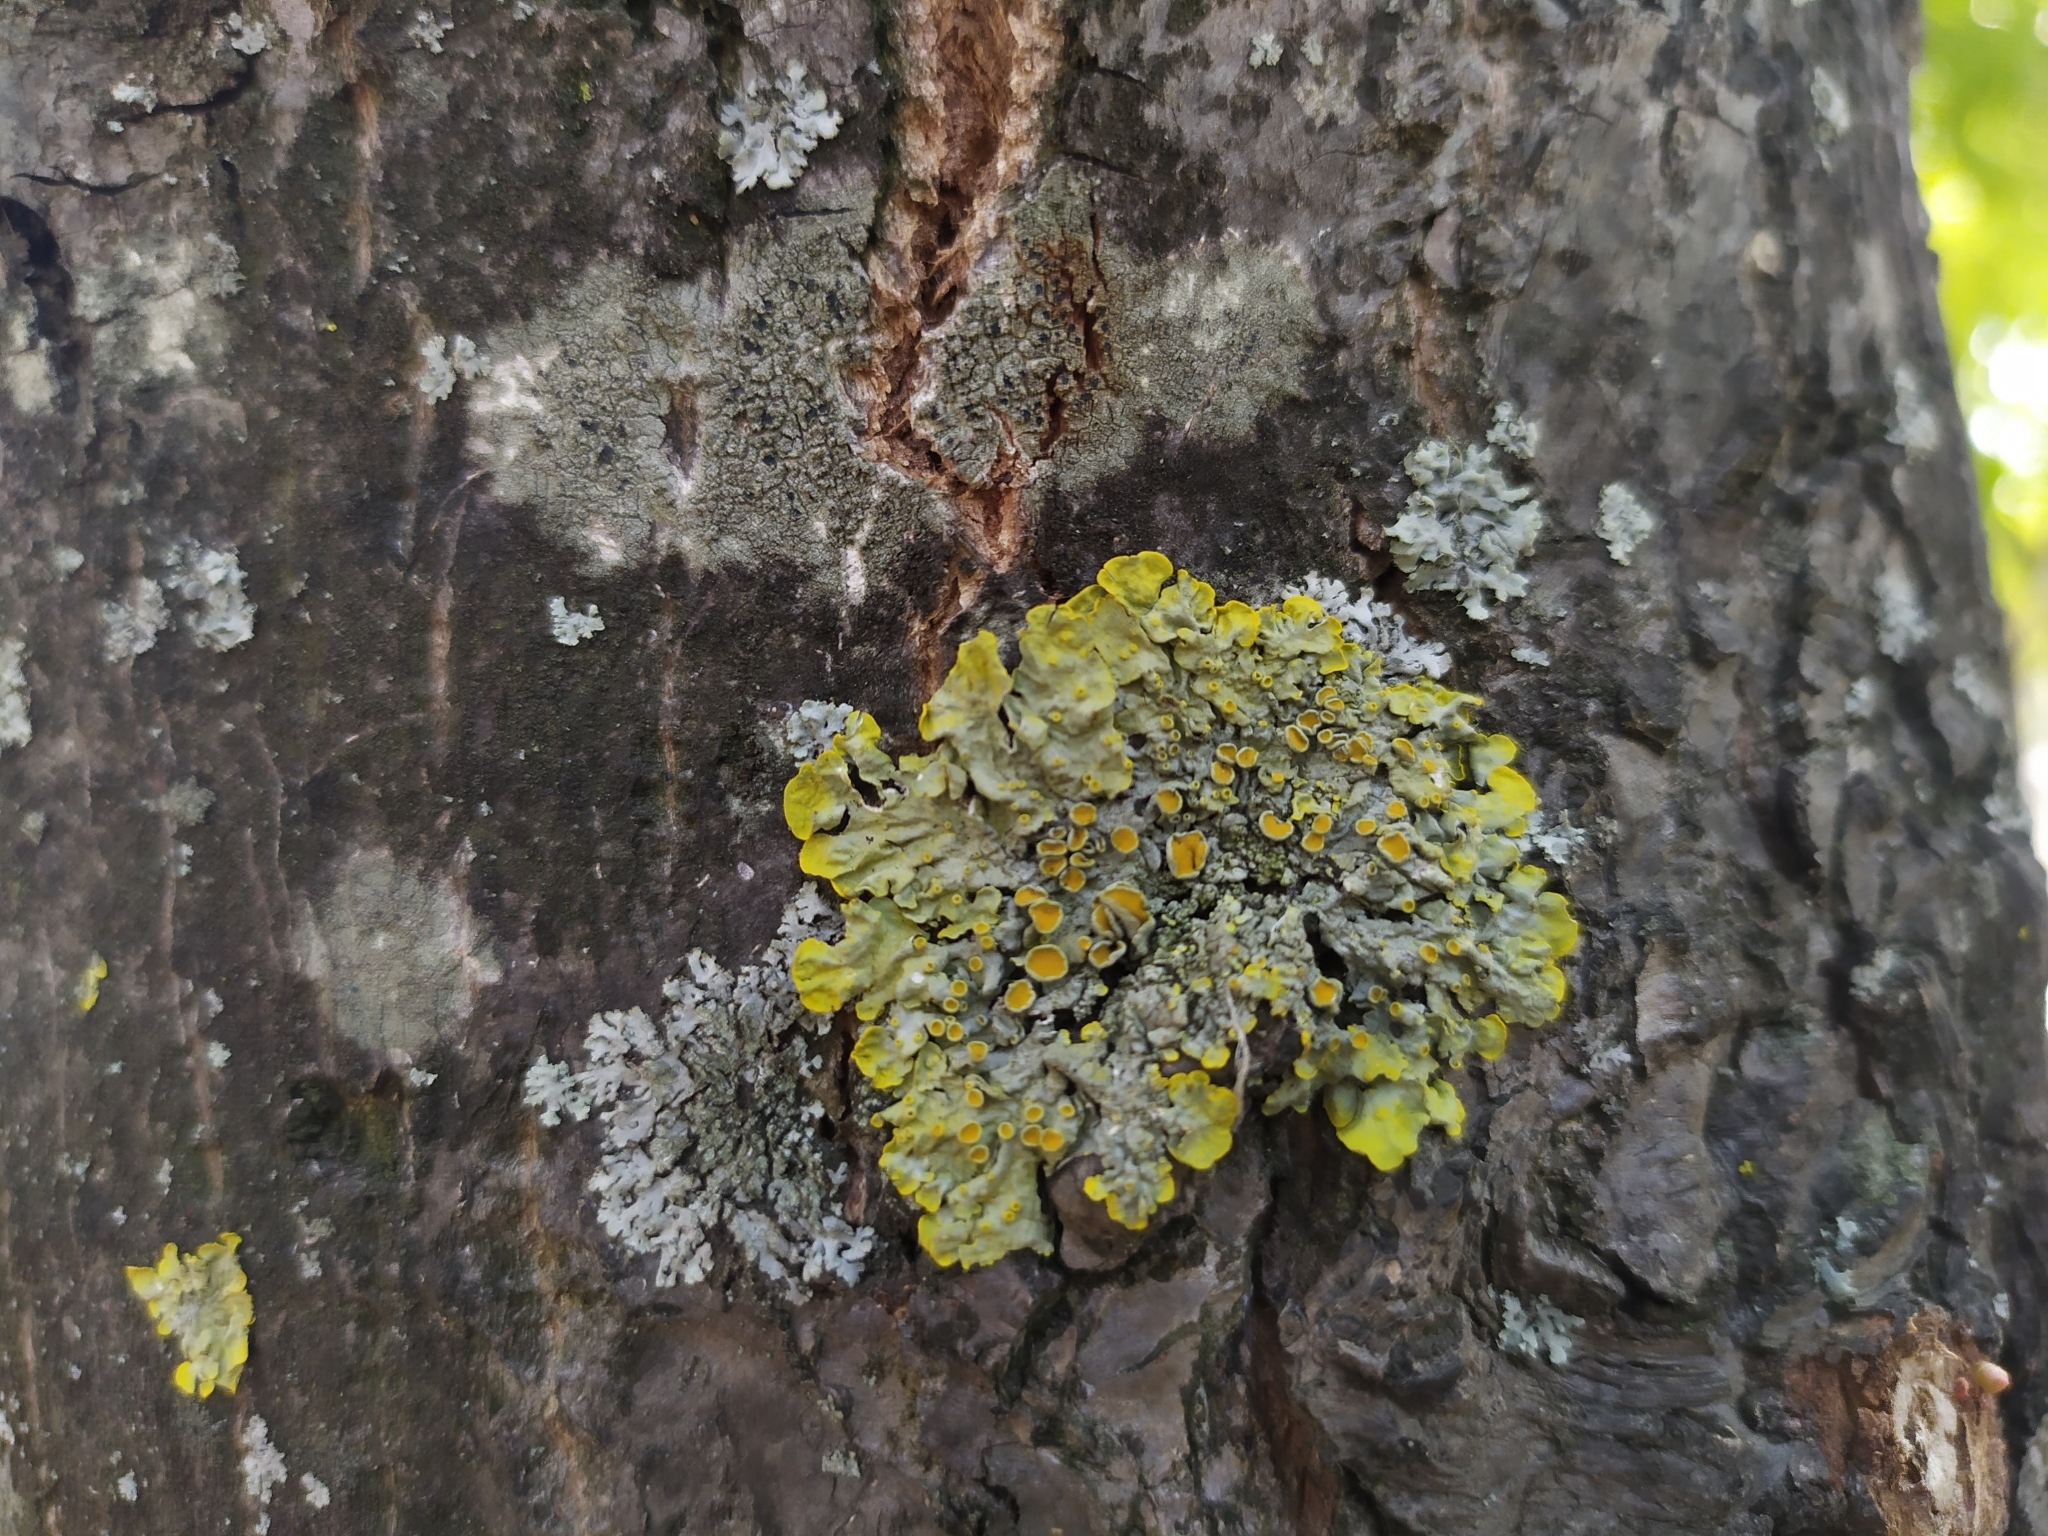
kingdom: Fungi
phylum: Ascomycota
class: Lecanoromycetes
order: Teloschistales
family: Teloschistaceae
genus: Xanthoria
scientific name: Xanthoria parietina
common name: Common orange lichen
